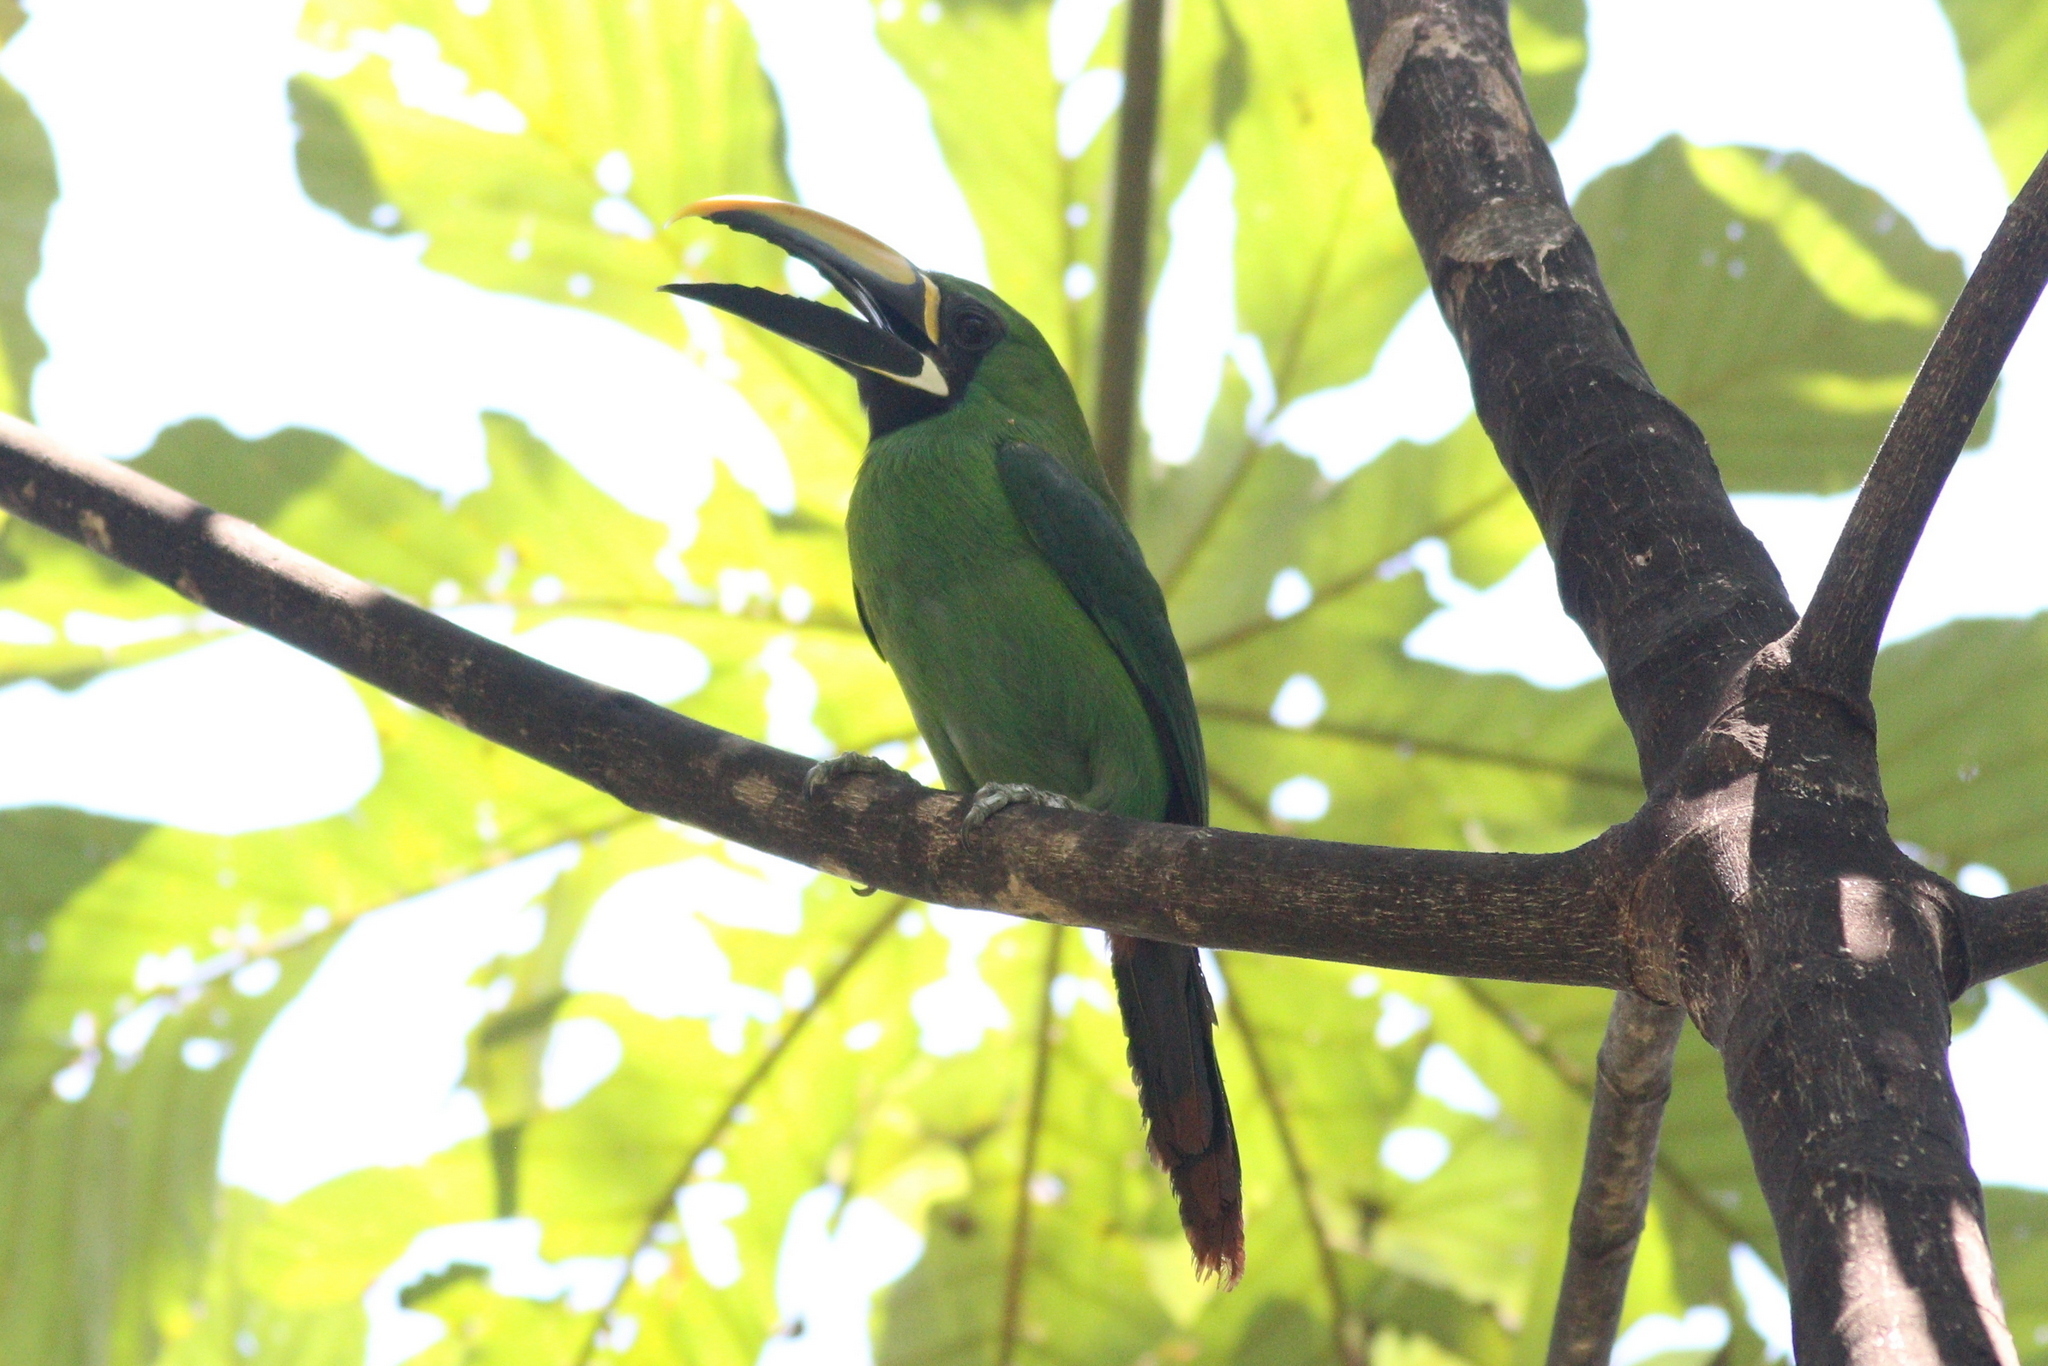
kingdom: Animalia
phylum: Chordata
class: Aves
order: Piciformes
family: Ramphastidae
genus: Aulacorhynchus
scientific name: Aulacorhynchus albivitta
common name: White-throated toucanet
